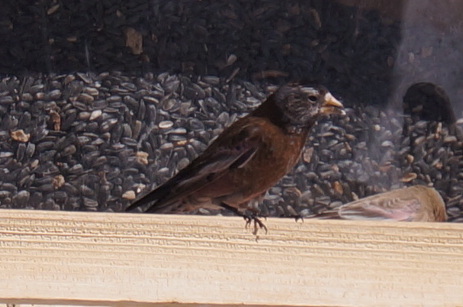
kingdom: Animalia
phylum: Chordata
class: Aves
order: Passeriformes
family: Fringillidae
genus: Leucosticte
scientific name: Leucosticte tephrocotis
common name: Gray-crowned rosy-finch
